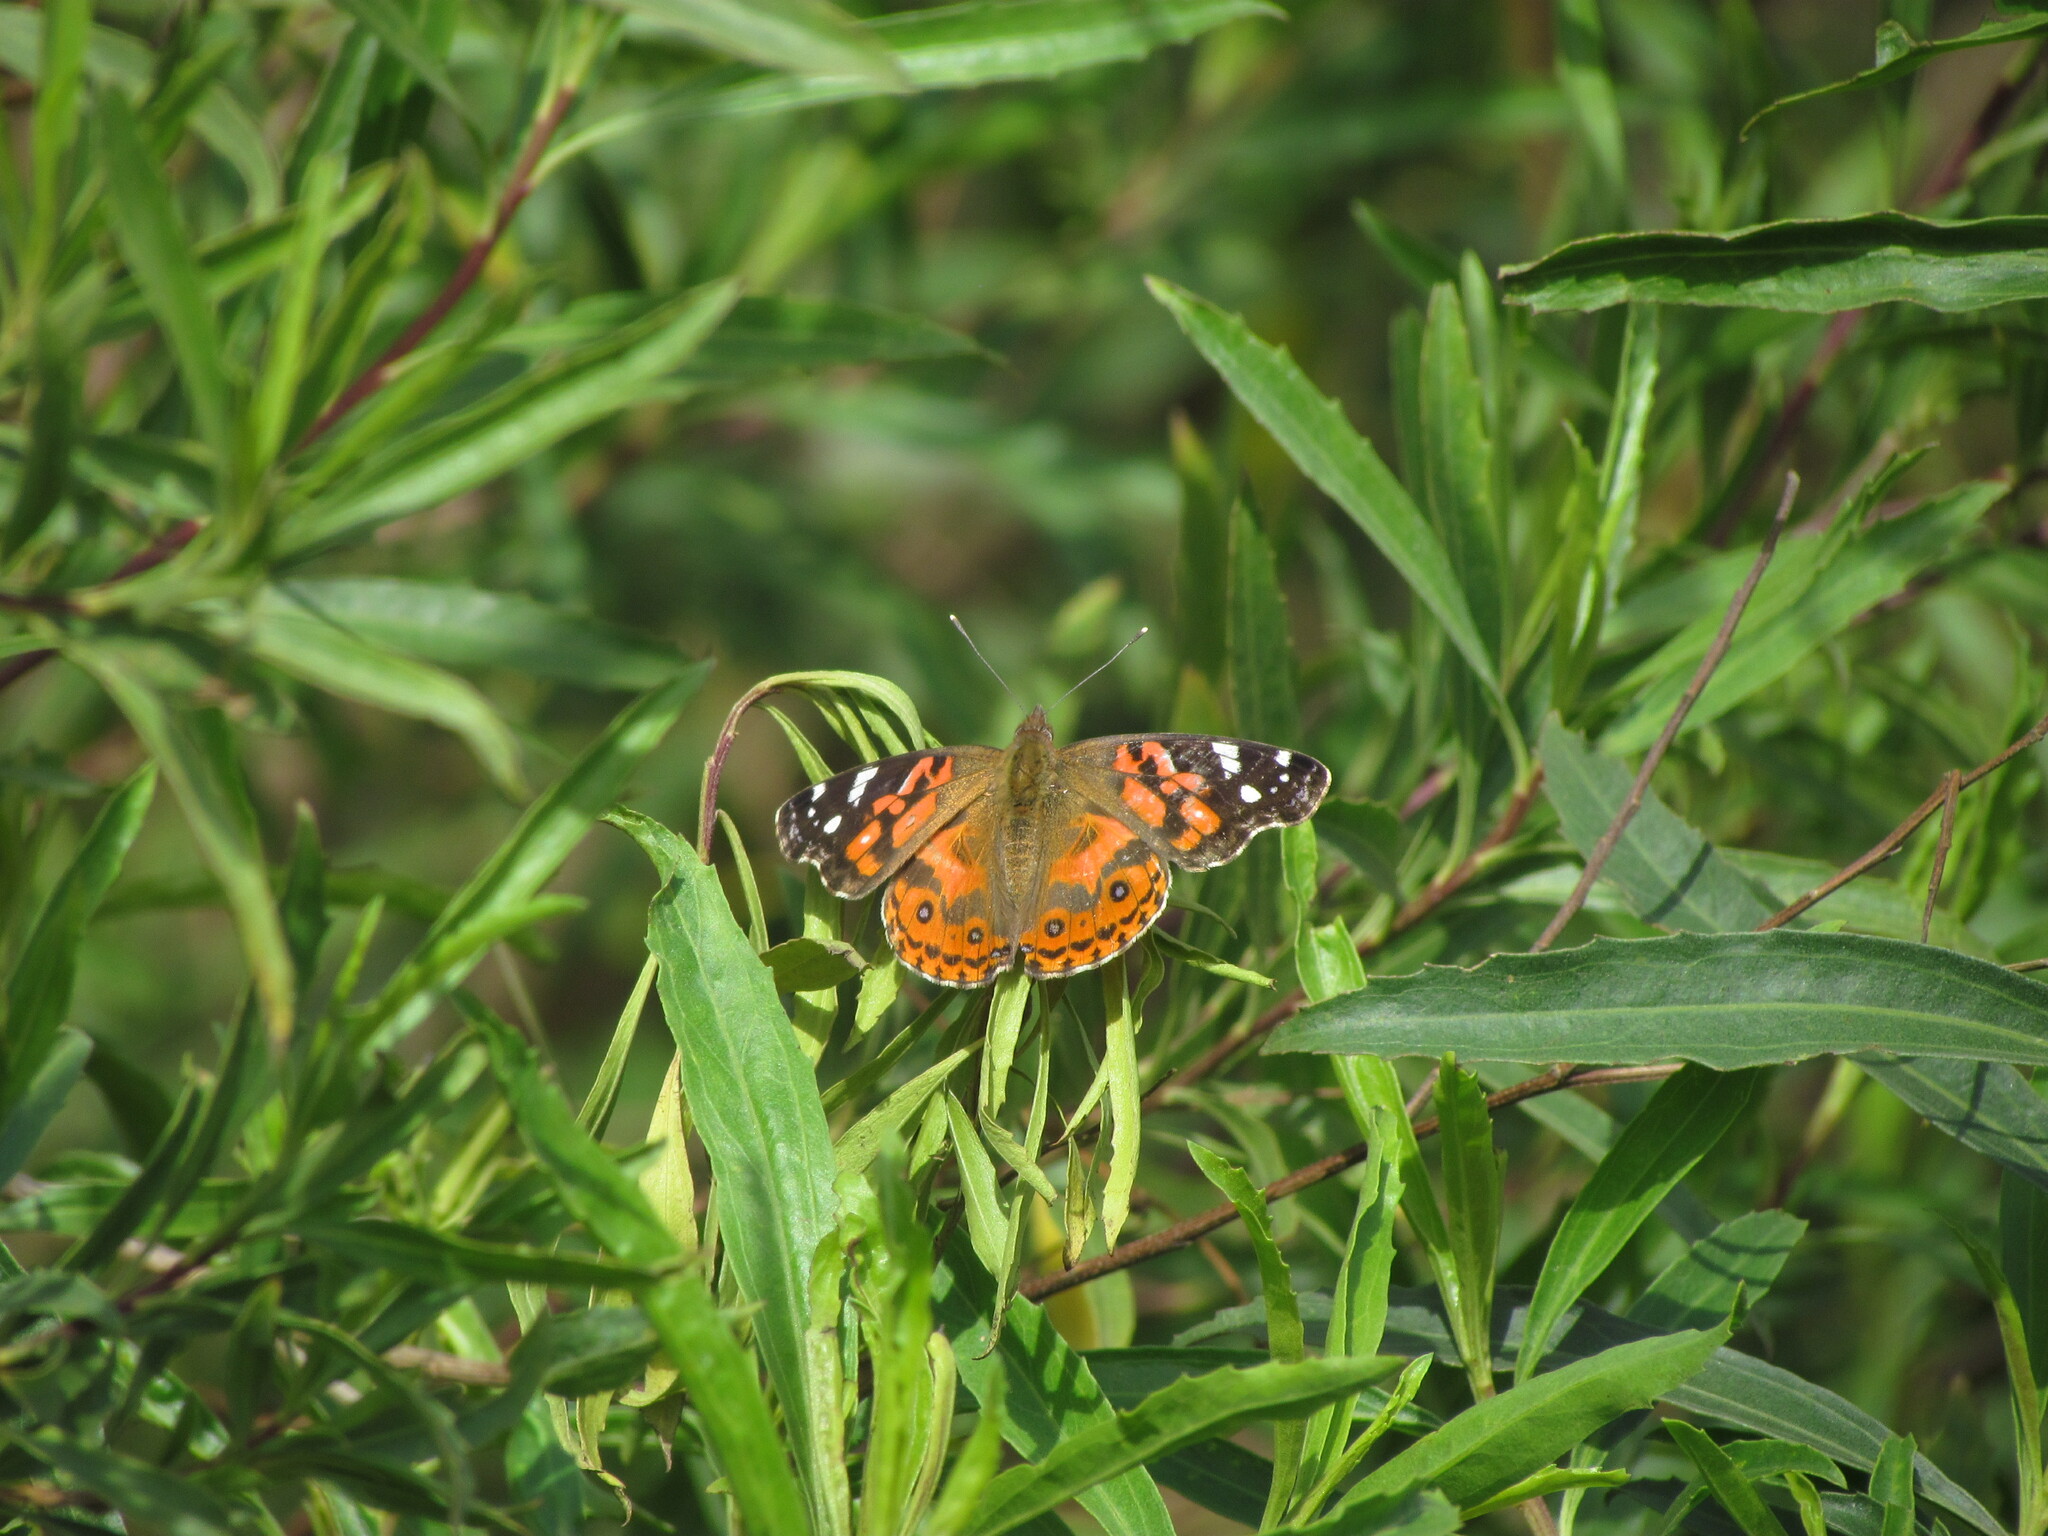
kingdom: Animalia
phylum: Arthropoda
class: Insecta
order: Lepidoptera
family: Nymphalidae
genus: Vanessa
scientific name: Vanessa braziliensis
